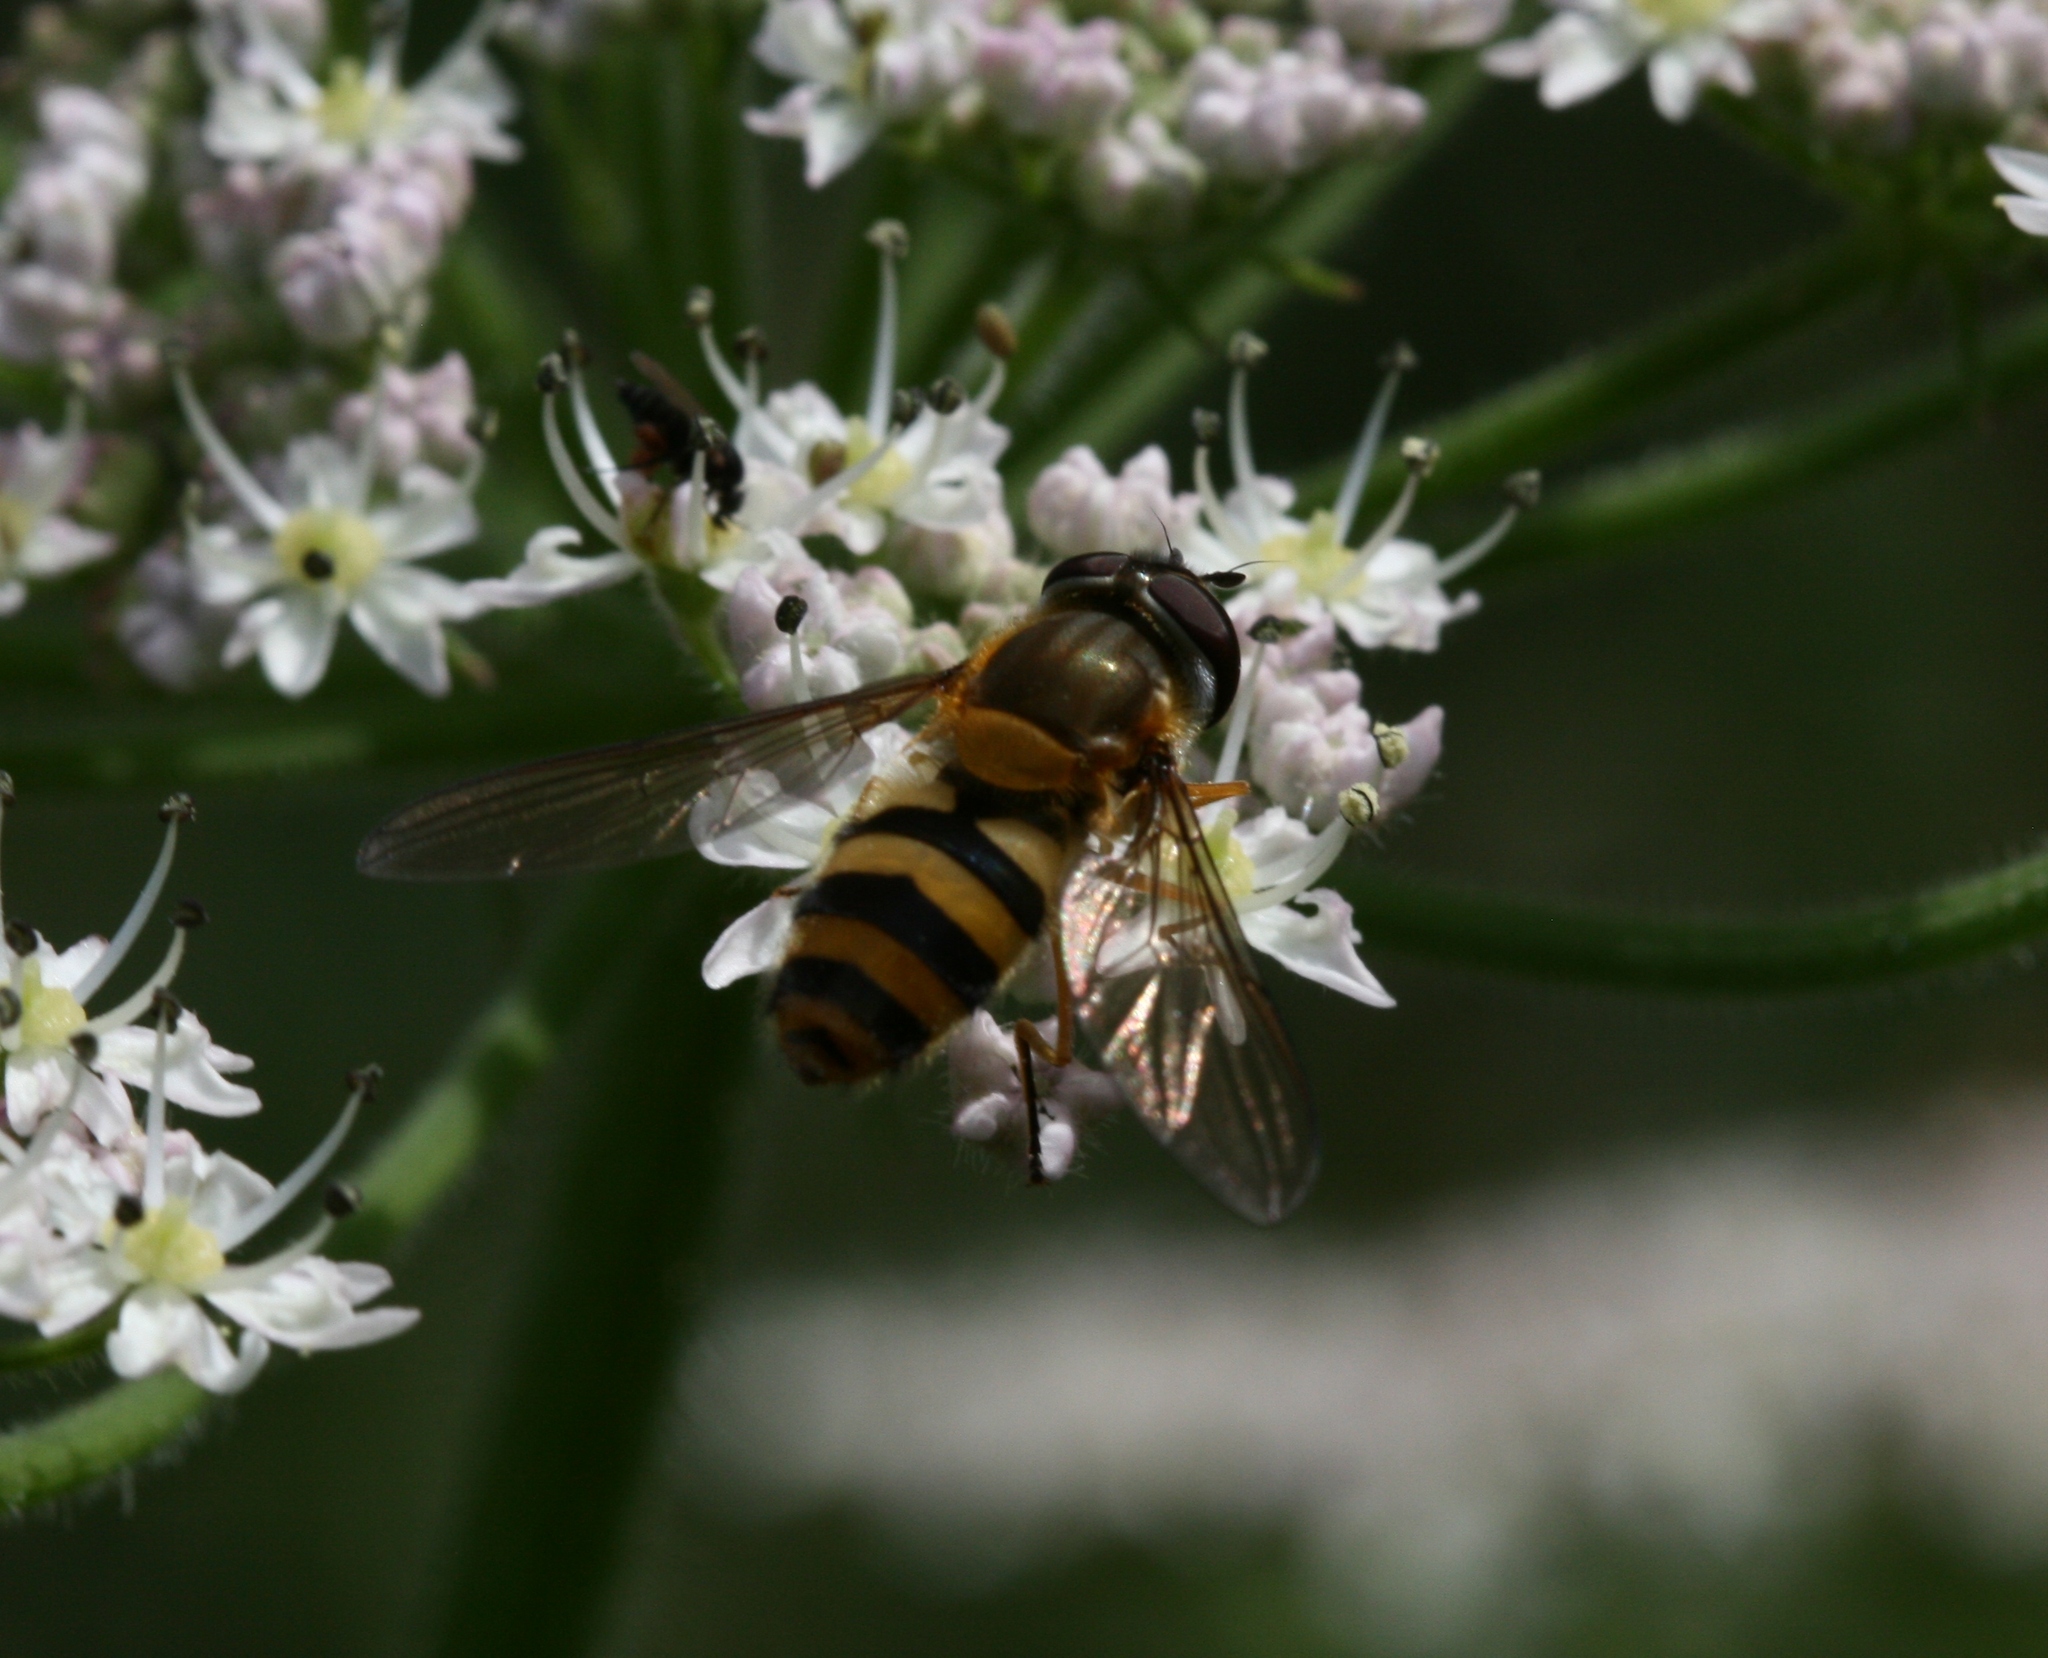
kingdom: Animalia
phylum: Arthropoda
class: Insecta
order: Diptera
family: Syrphidae
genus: Epistrophe
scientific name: Epistrophe grossulariae
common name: Black-horned smoothtail
